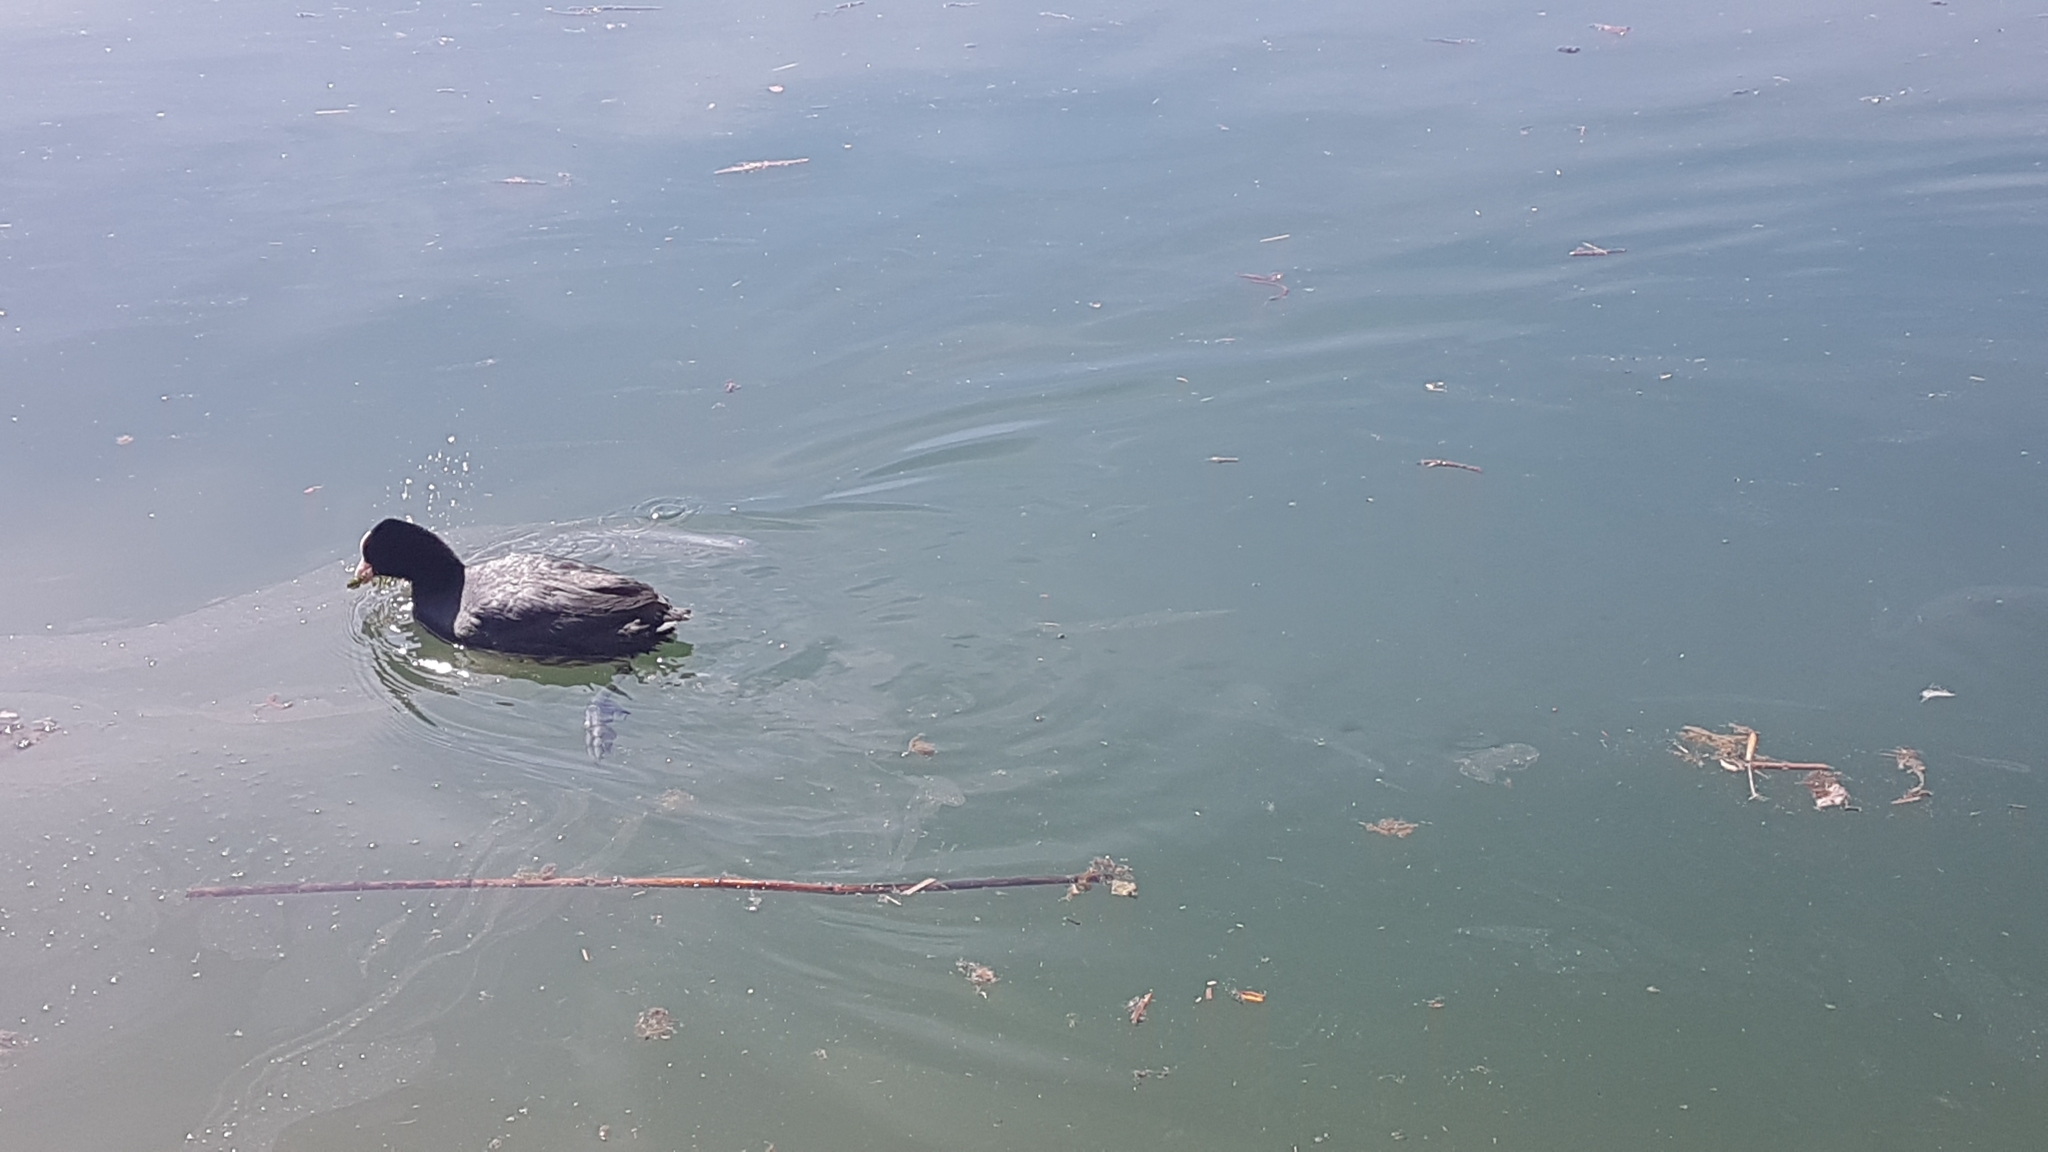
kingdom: Animalia
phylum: Chordata
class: Aves
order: Gruiformes
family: Rallidae
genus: Fulica
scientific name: Fulica atra
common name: Eurasian coot
